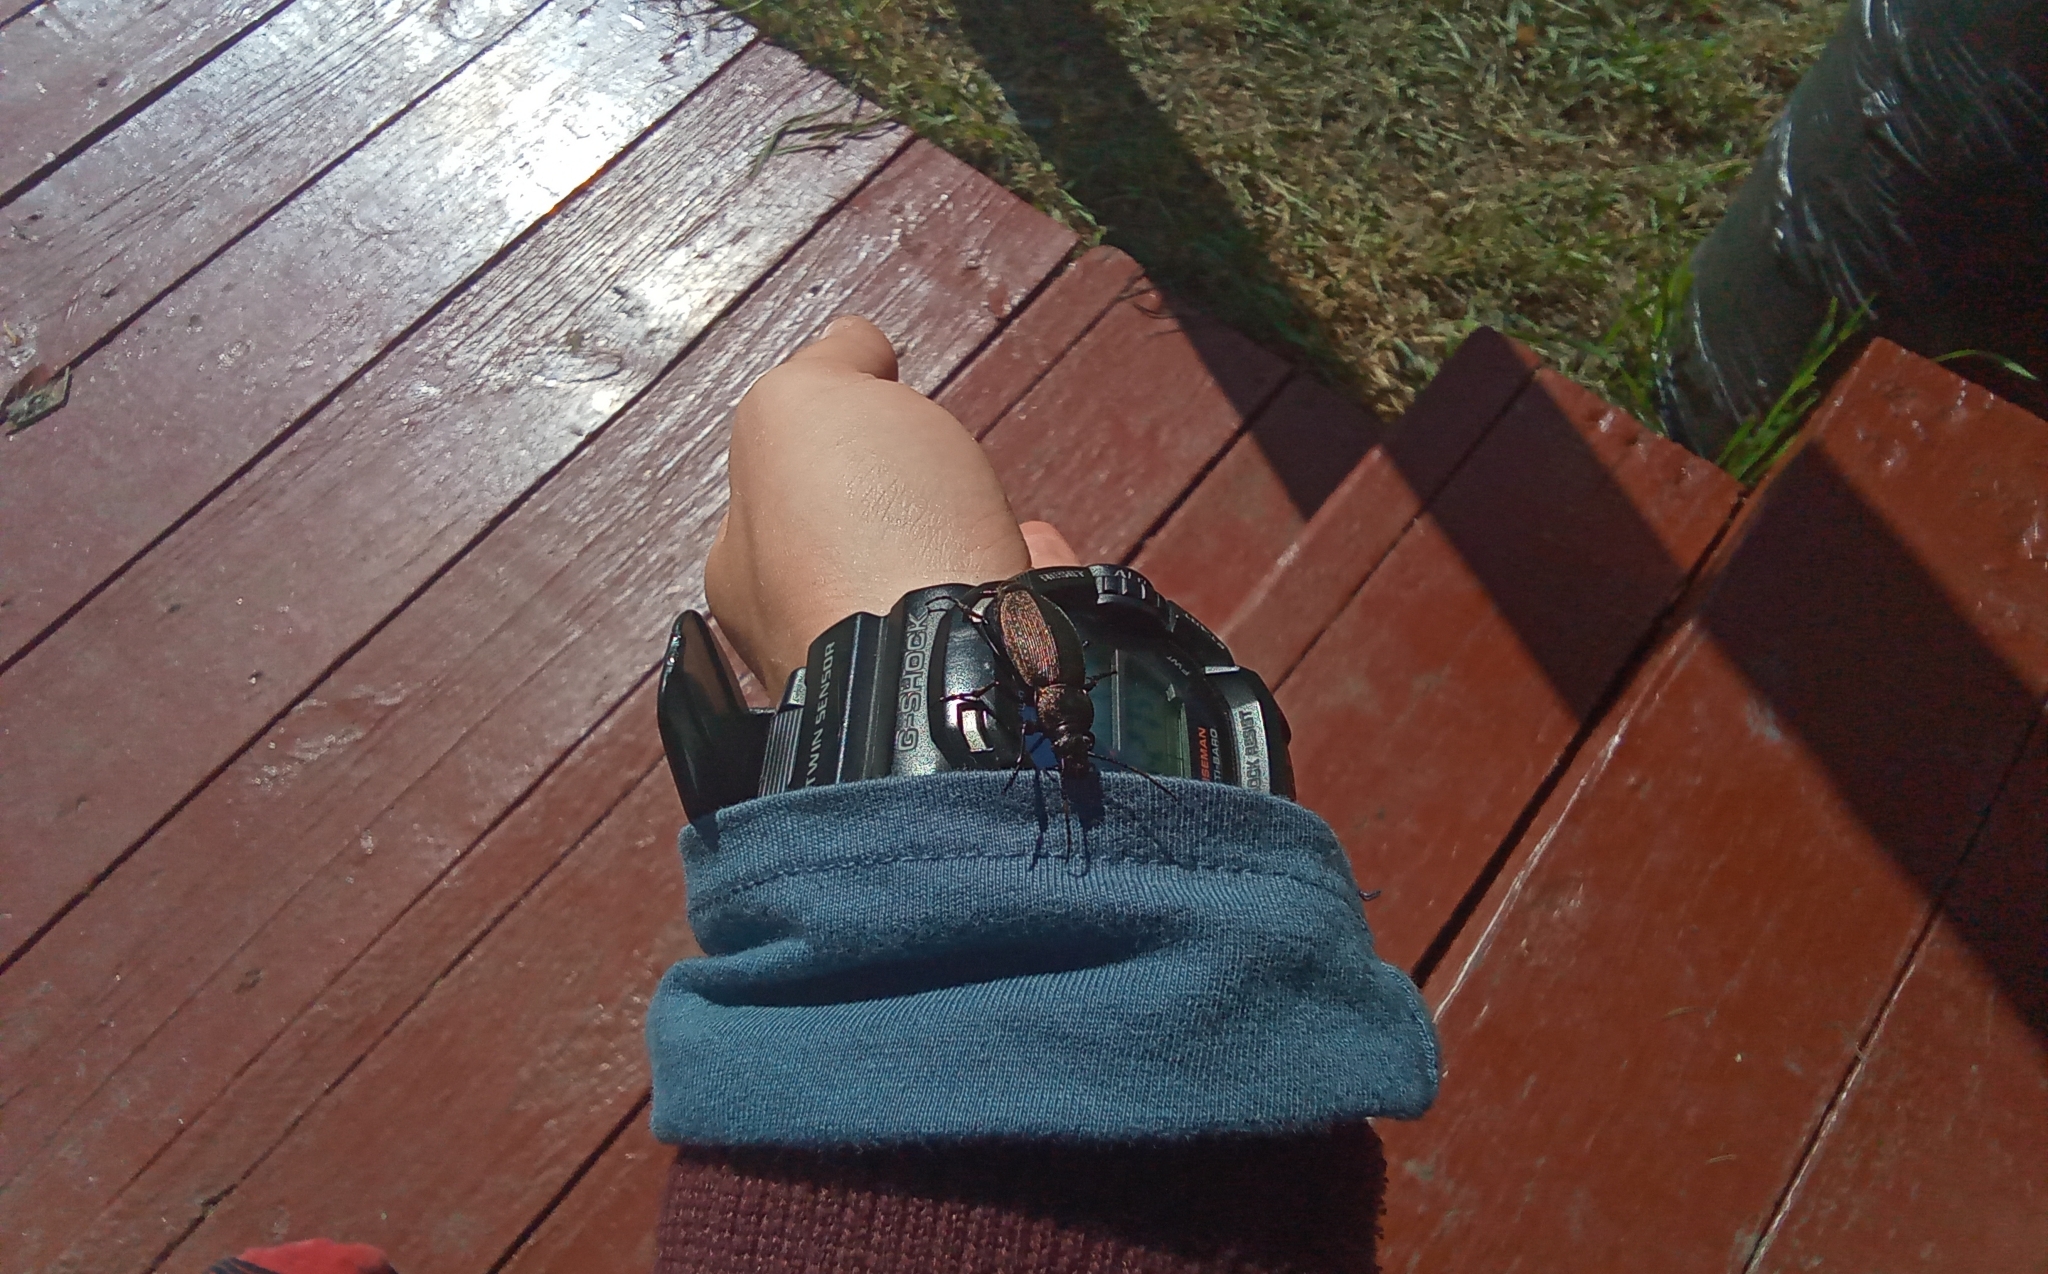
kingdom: Animalia
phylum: Arthropoda
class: Insecta
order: Coleoptera
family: Carabidae
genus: Carabus
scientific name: Carabus regalis
